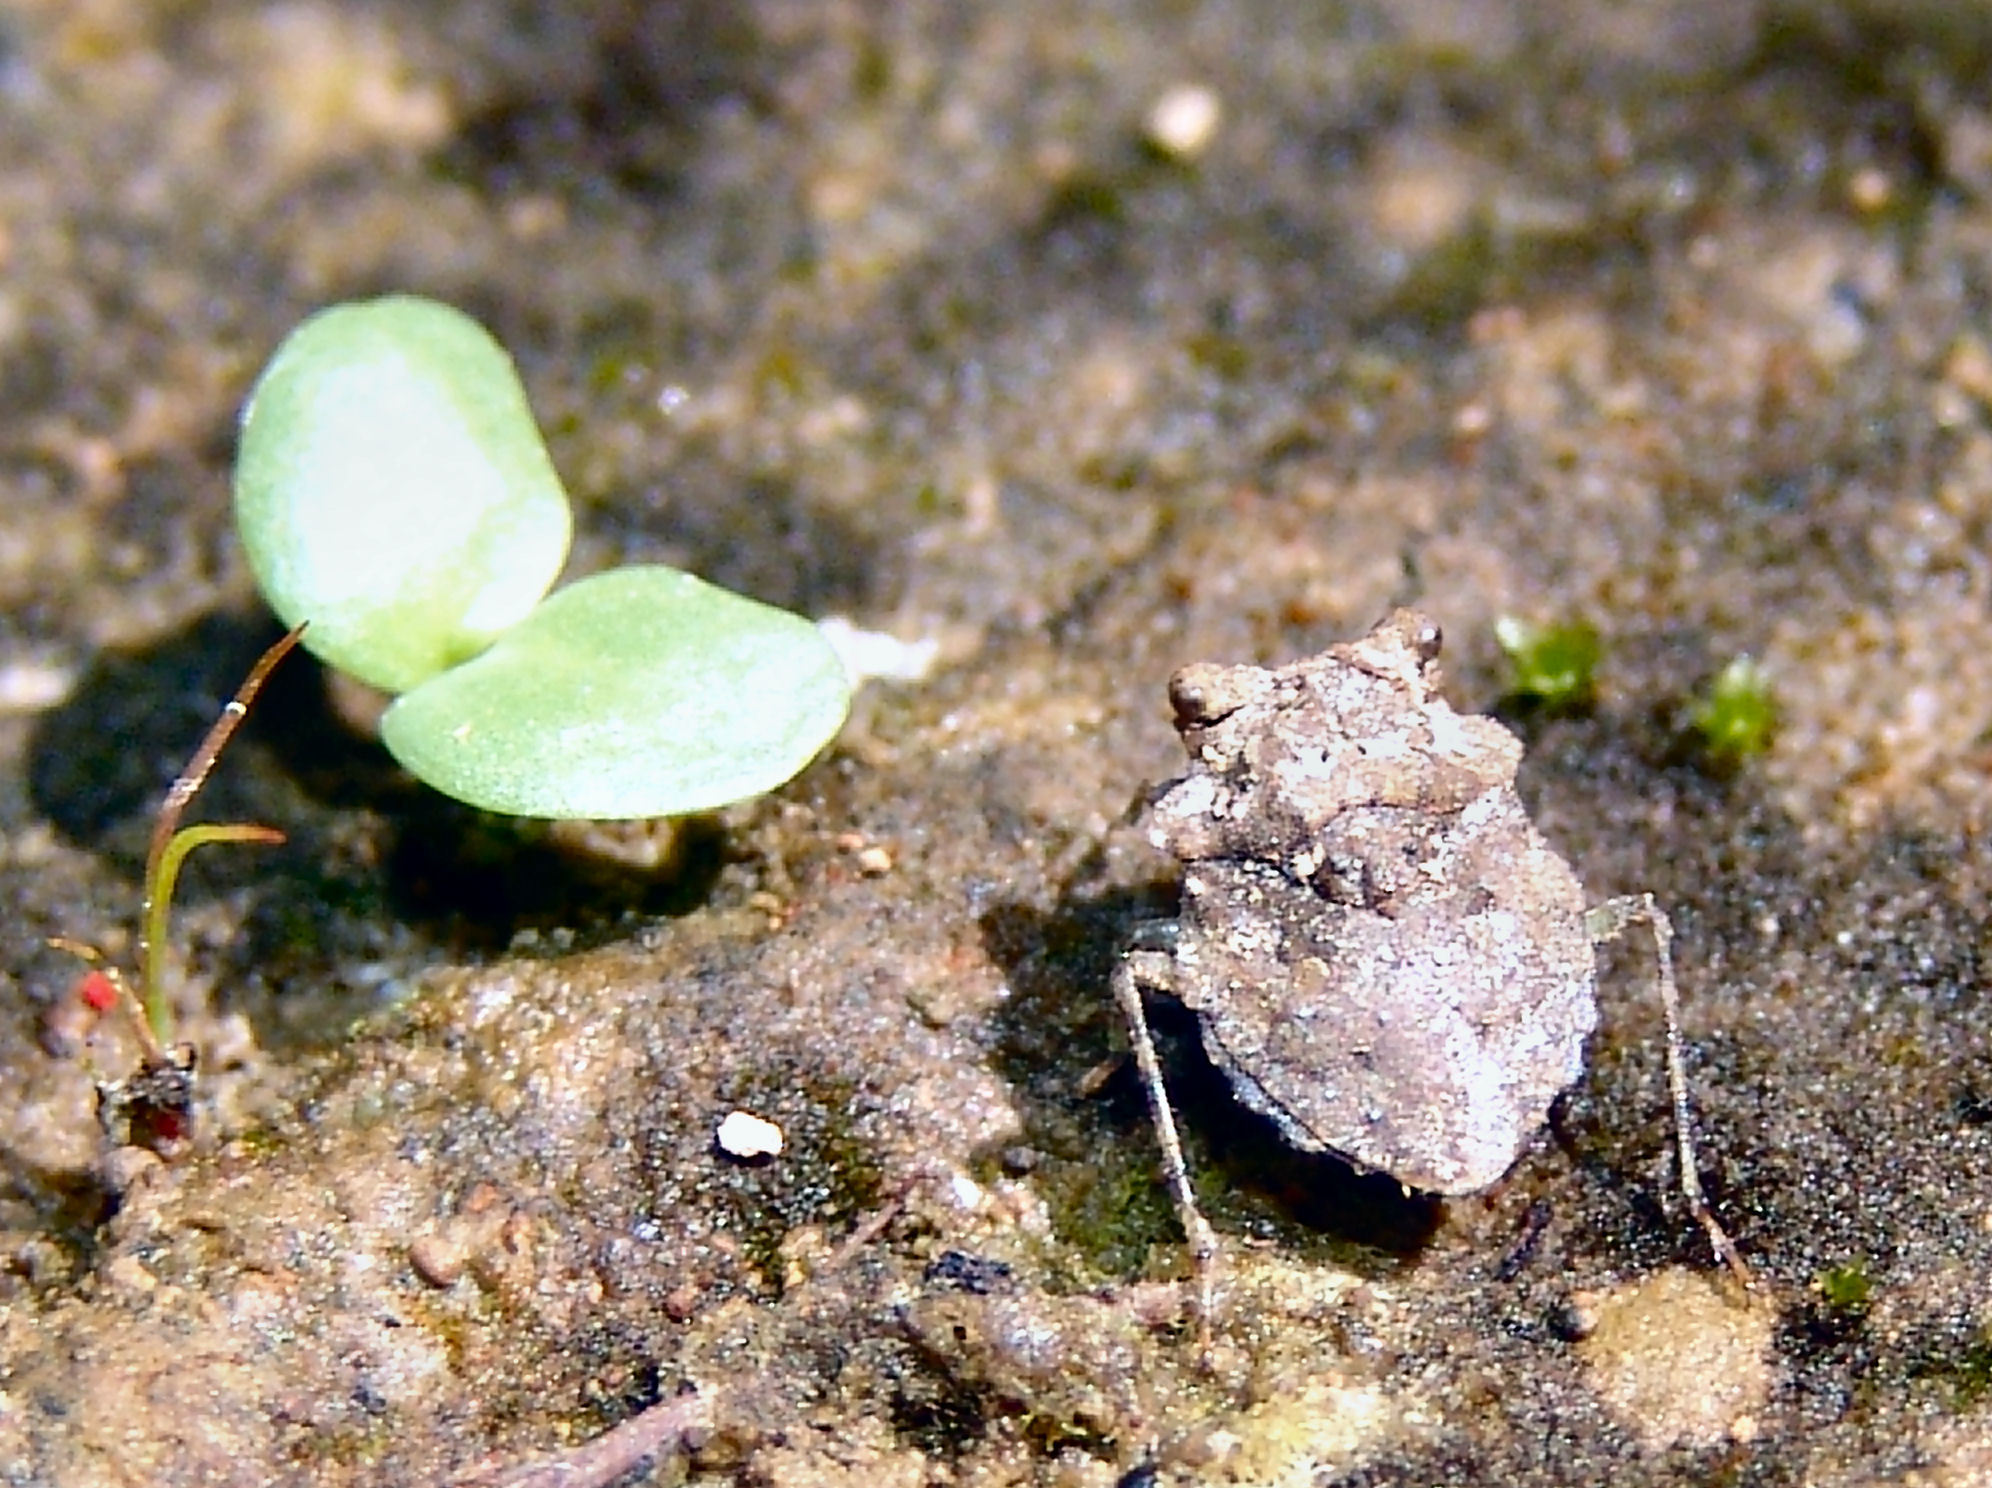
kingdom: Animalia
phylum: Arthropoda
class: Insecta
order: Hemiptera
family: Gelastocoridae
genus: Gelastocoris
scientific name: Gelastocoris oculatus
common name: Toad bug
